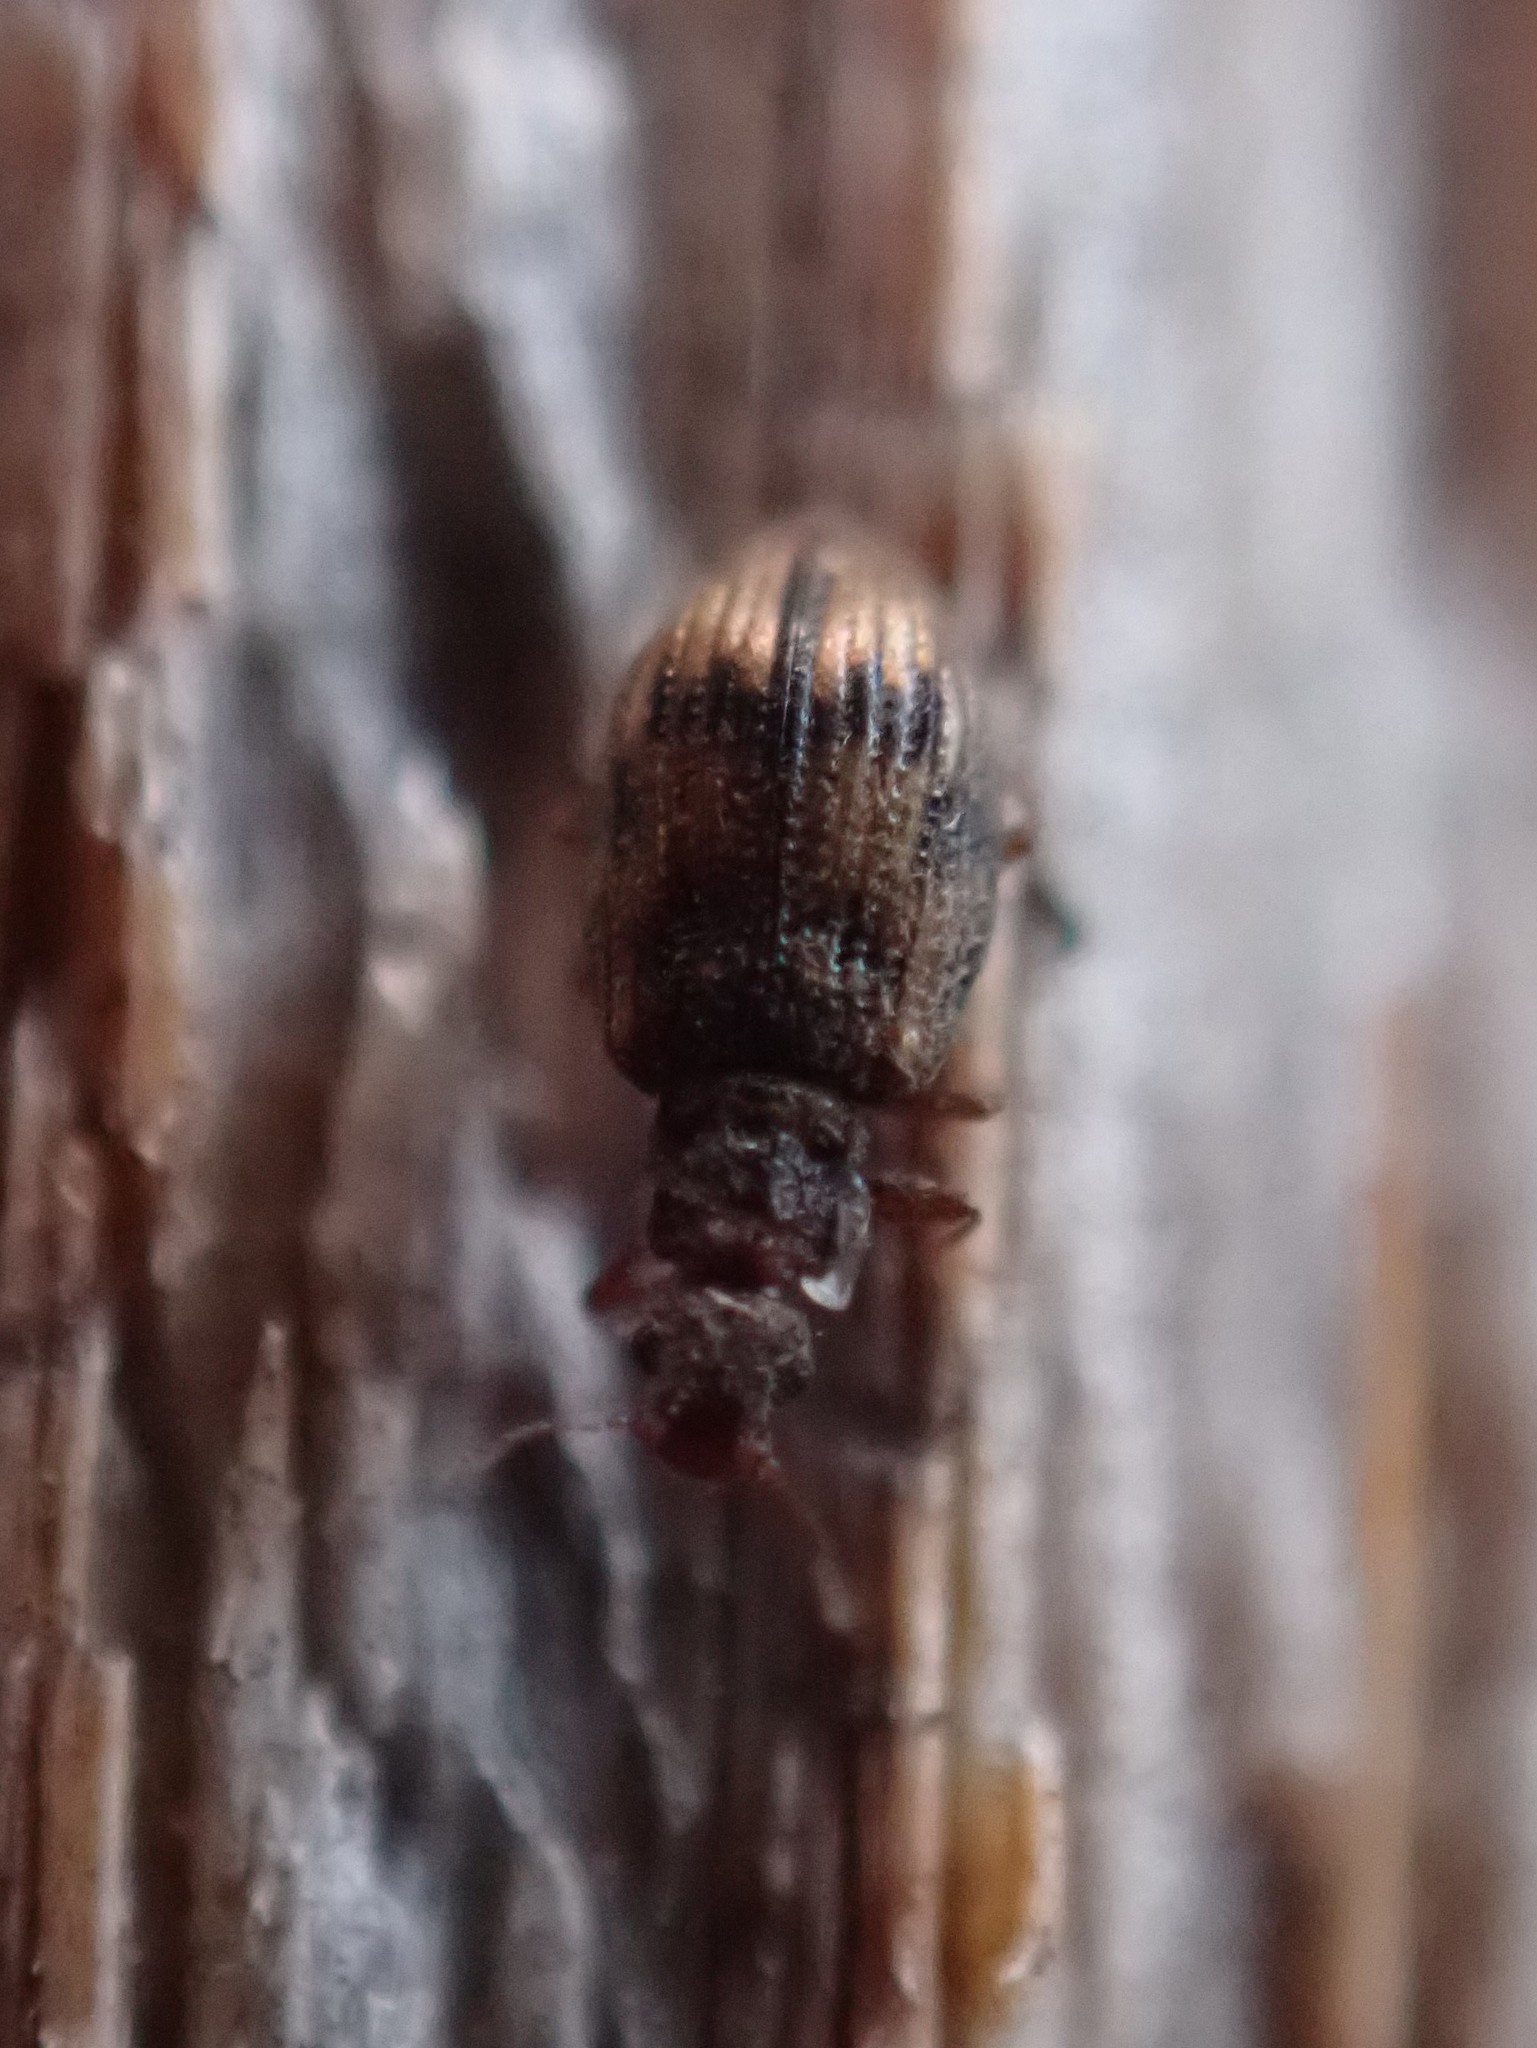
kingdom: Animalia
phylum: Arthropoda
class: Insecta
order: Coleoptera
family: Latridiidae
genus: Cartodere
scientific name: Cartodere bifasciata
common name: Plaster beetle
